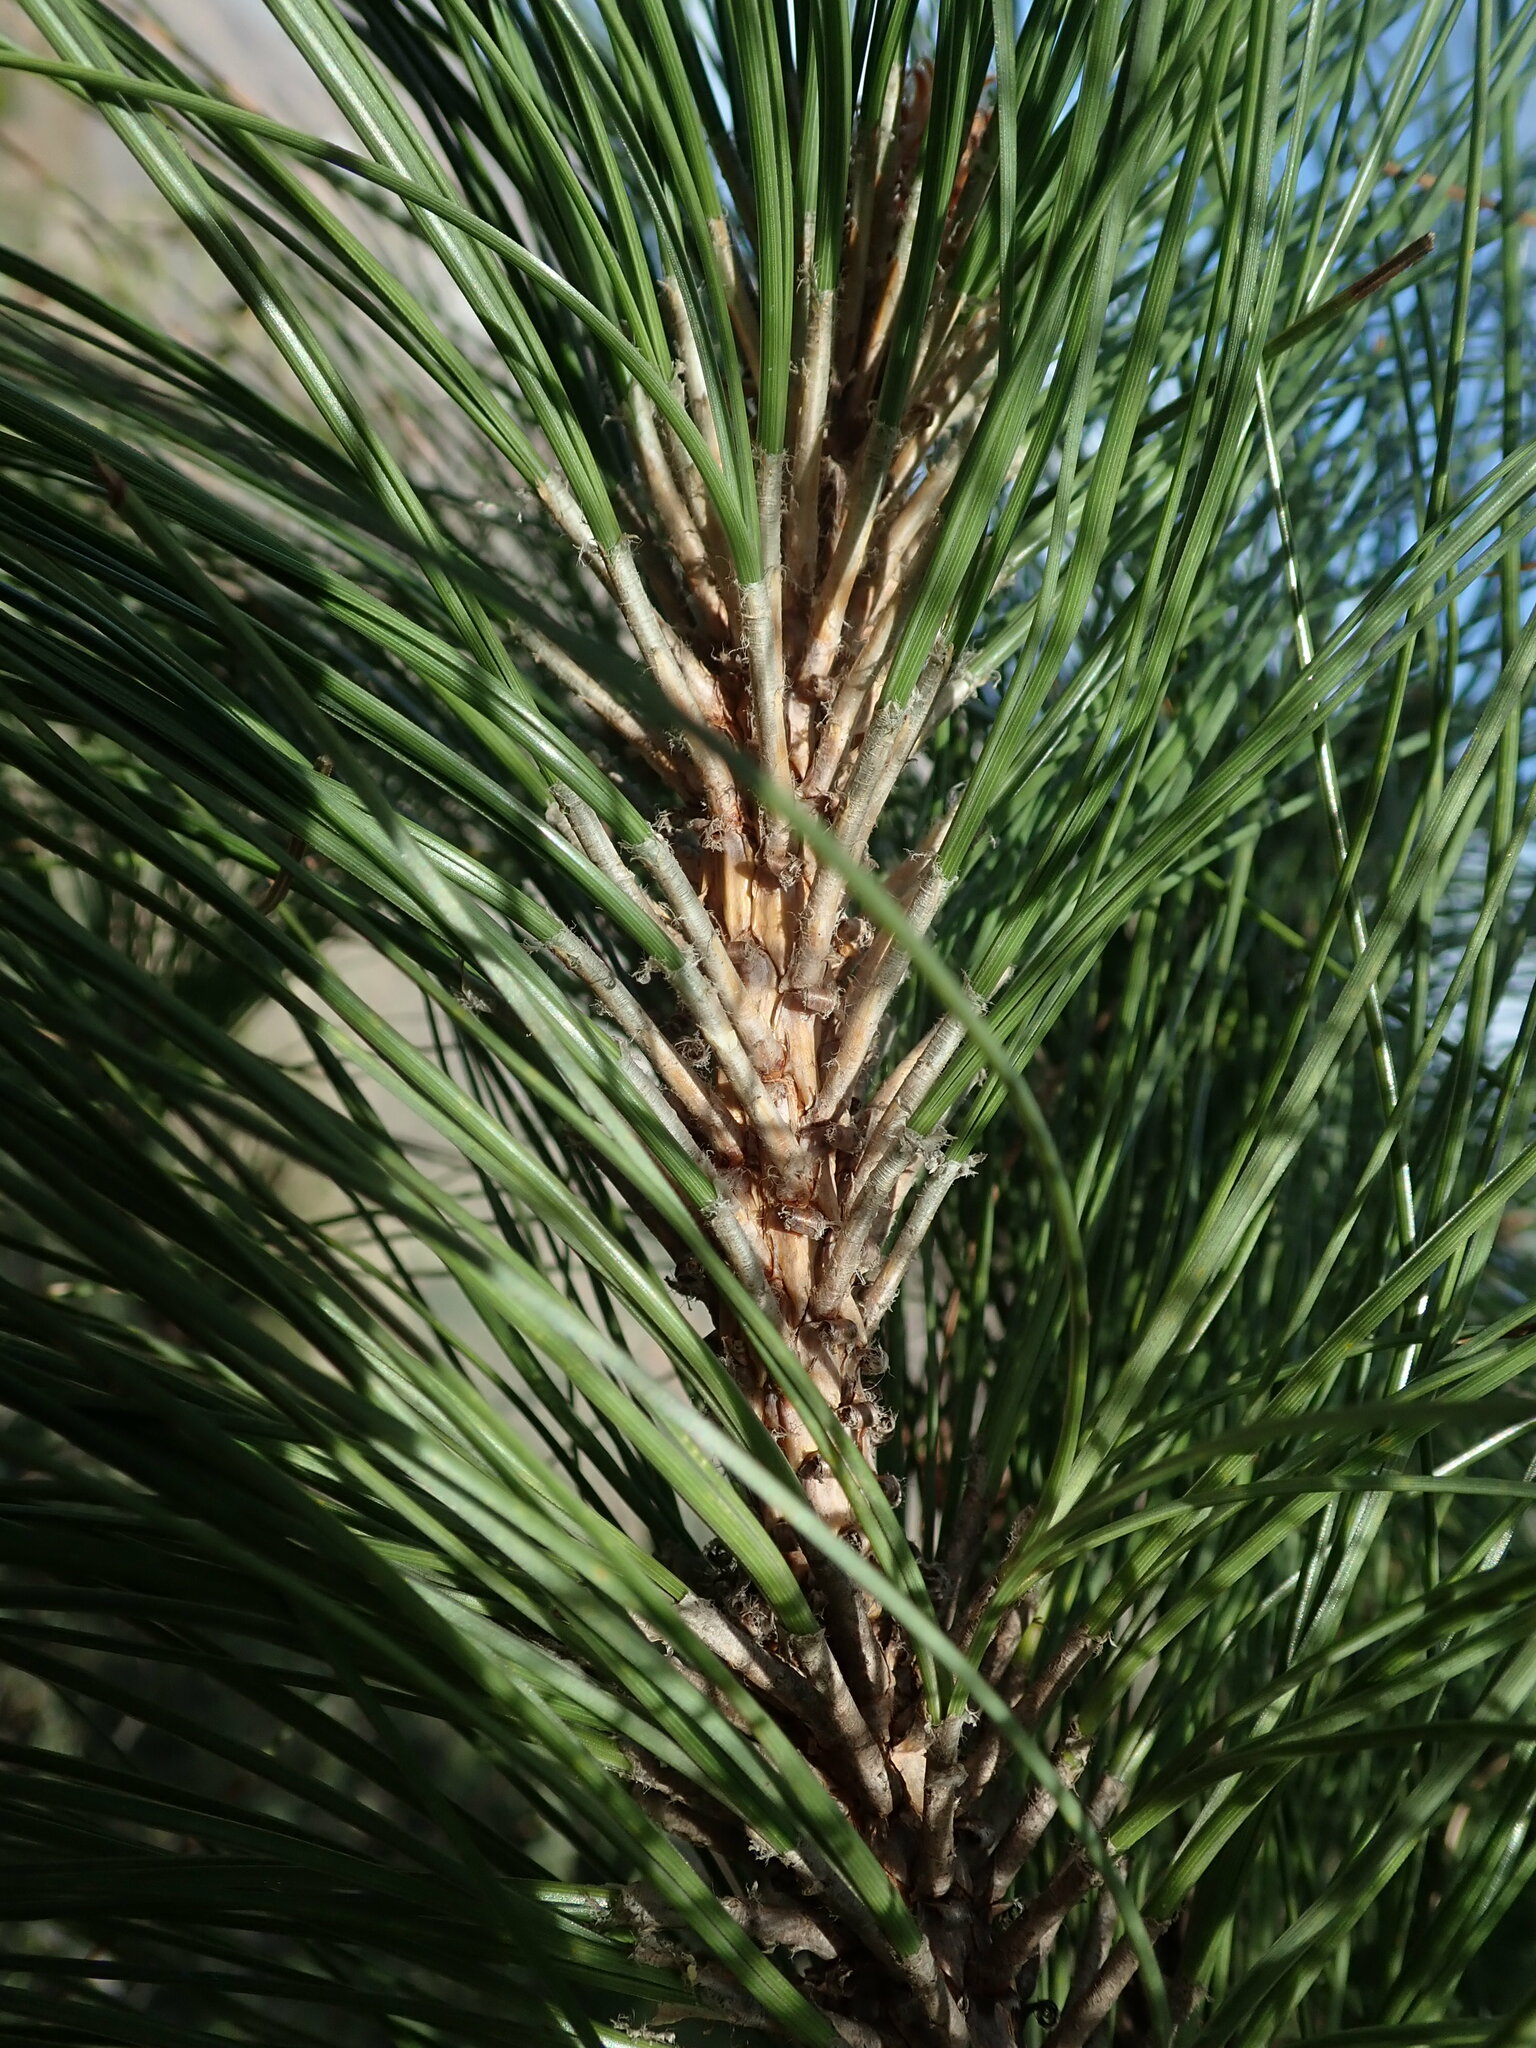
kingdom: Plantae
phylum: Tracheophyta
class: Pinopsida
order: Pinales
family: Pinaceae
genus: Pinus
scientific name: Pinus canariensis
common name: Canary islands pine
